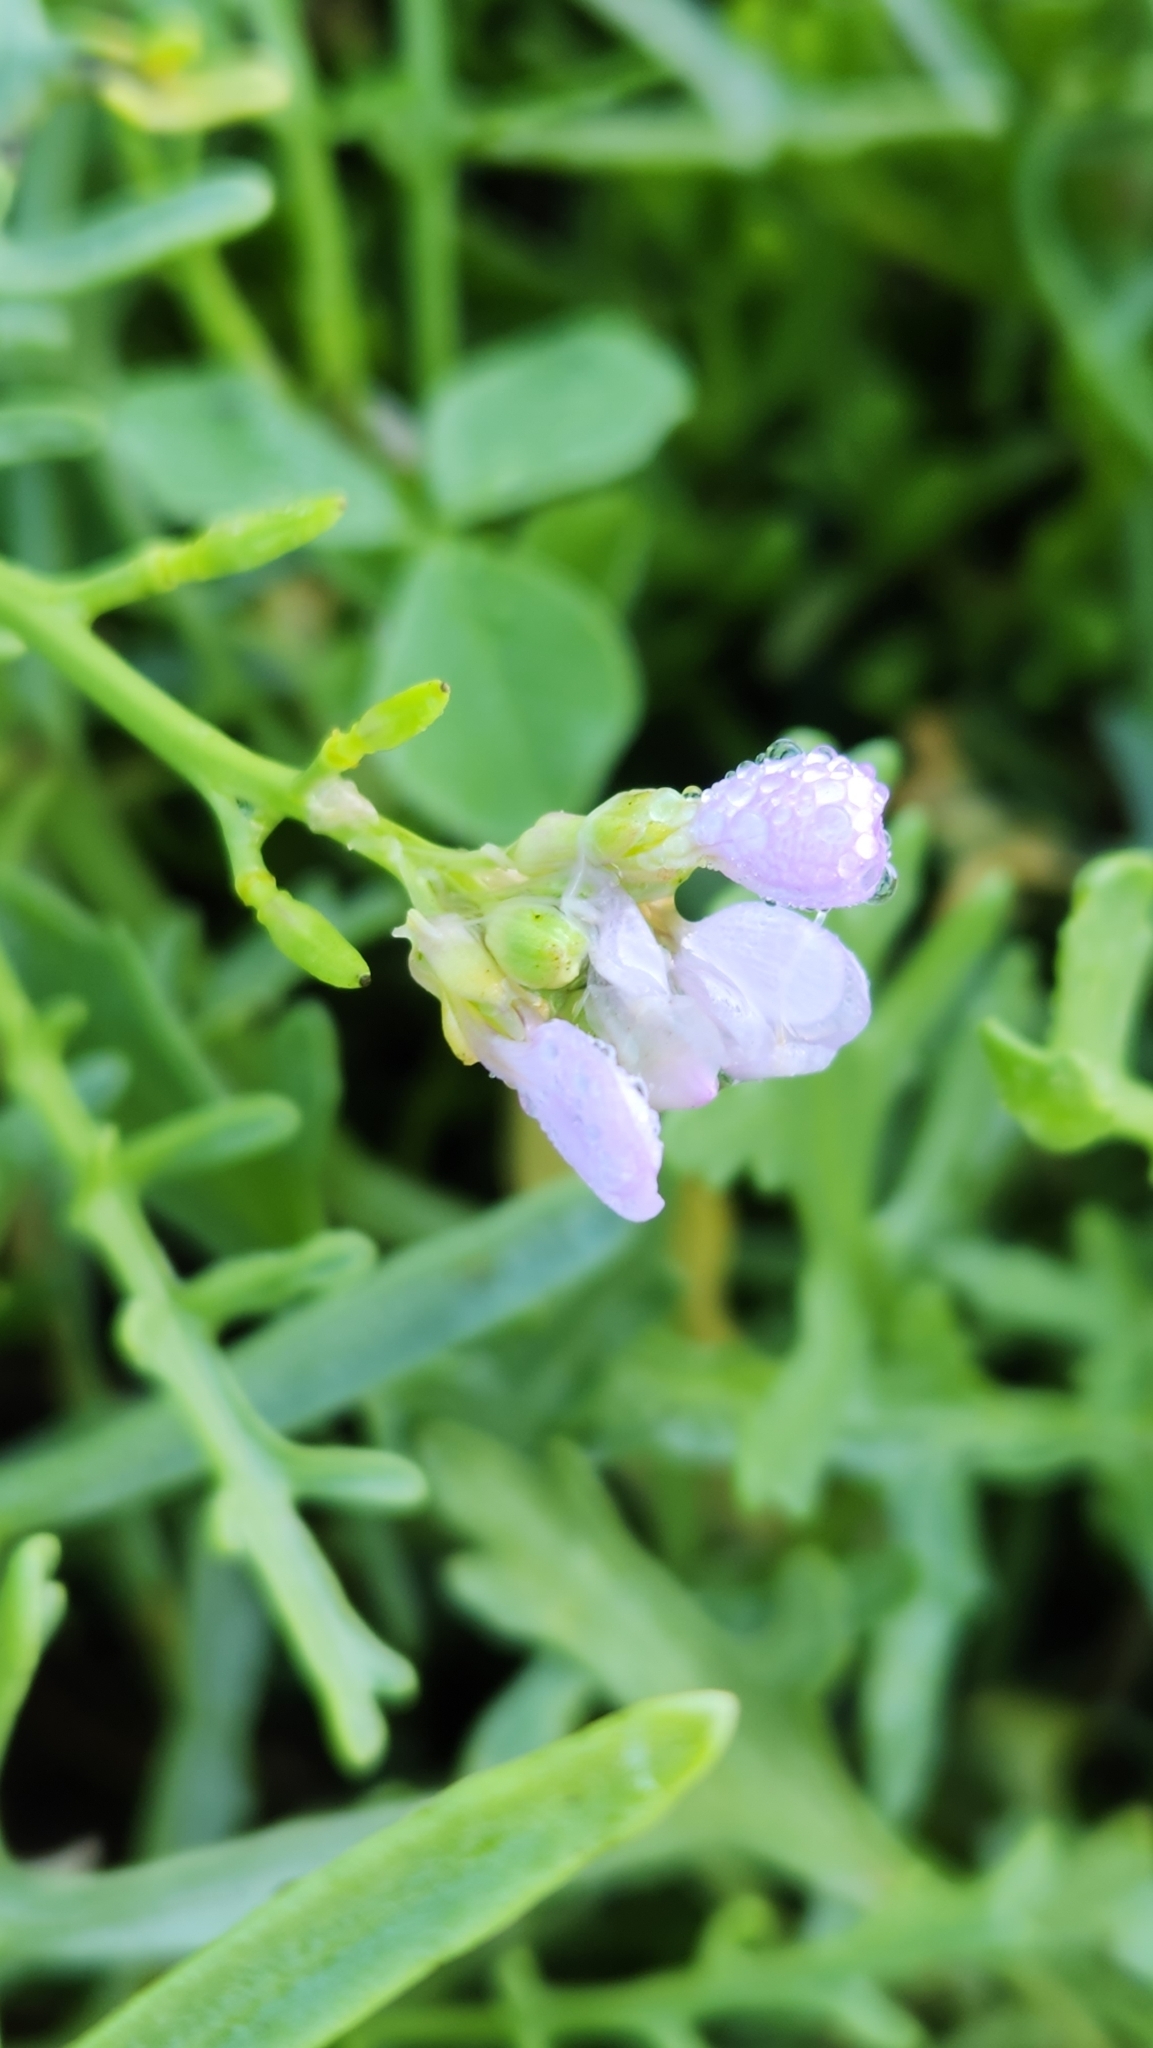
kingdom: Plantae
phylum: Tracheophyta
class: Magnoliopsida
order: Brassicales
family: Brassicaceae
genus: Cakile
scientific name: Cakile maritima
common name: Sea rocket
